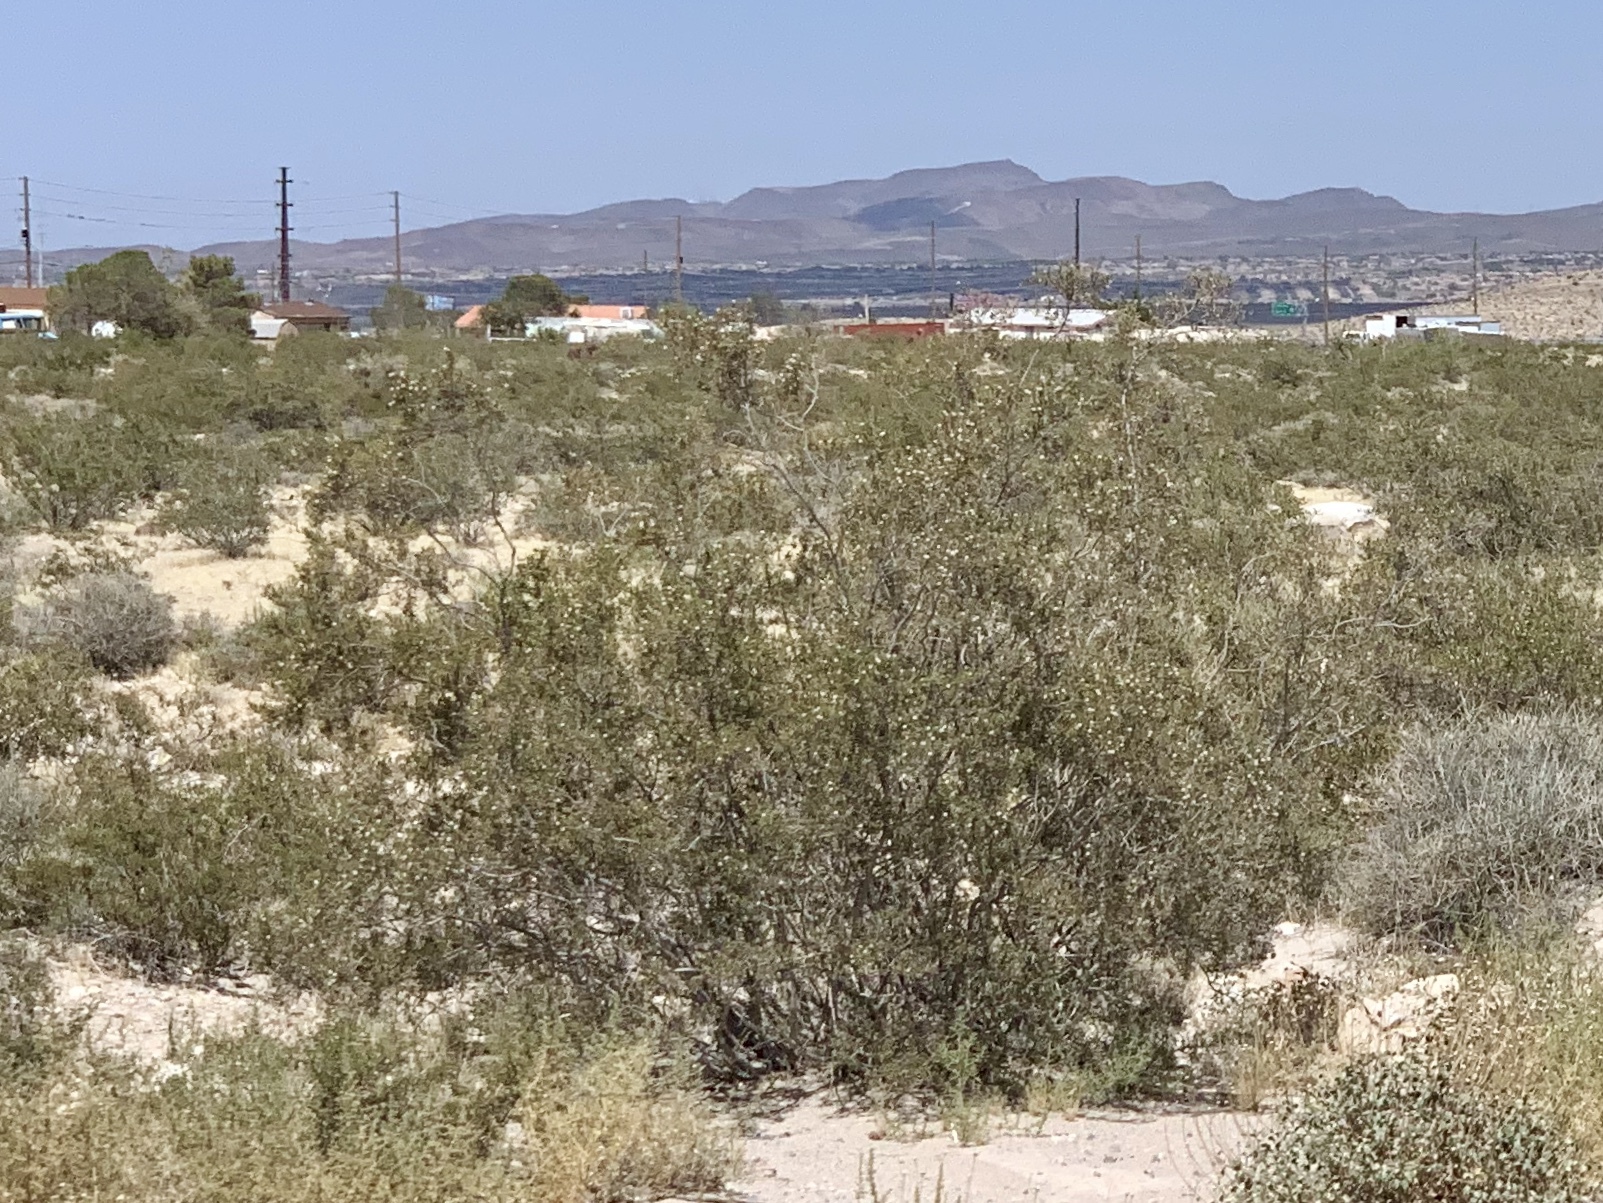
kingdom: Plantae
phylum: Tracheophyta
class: Magnoliopsida
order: Zygophyllales
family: Zygophyllaceae
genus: Larrea
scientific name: Larrea tridentata
